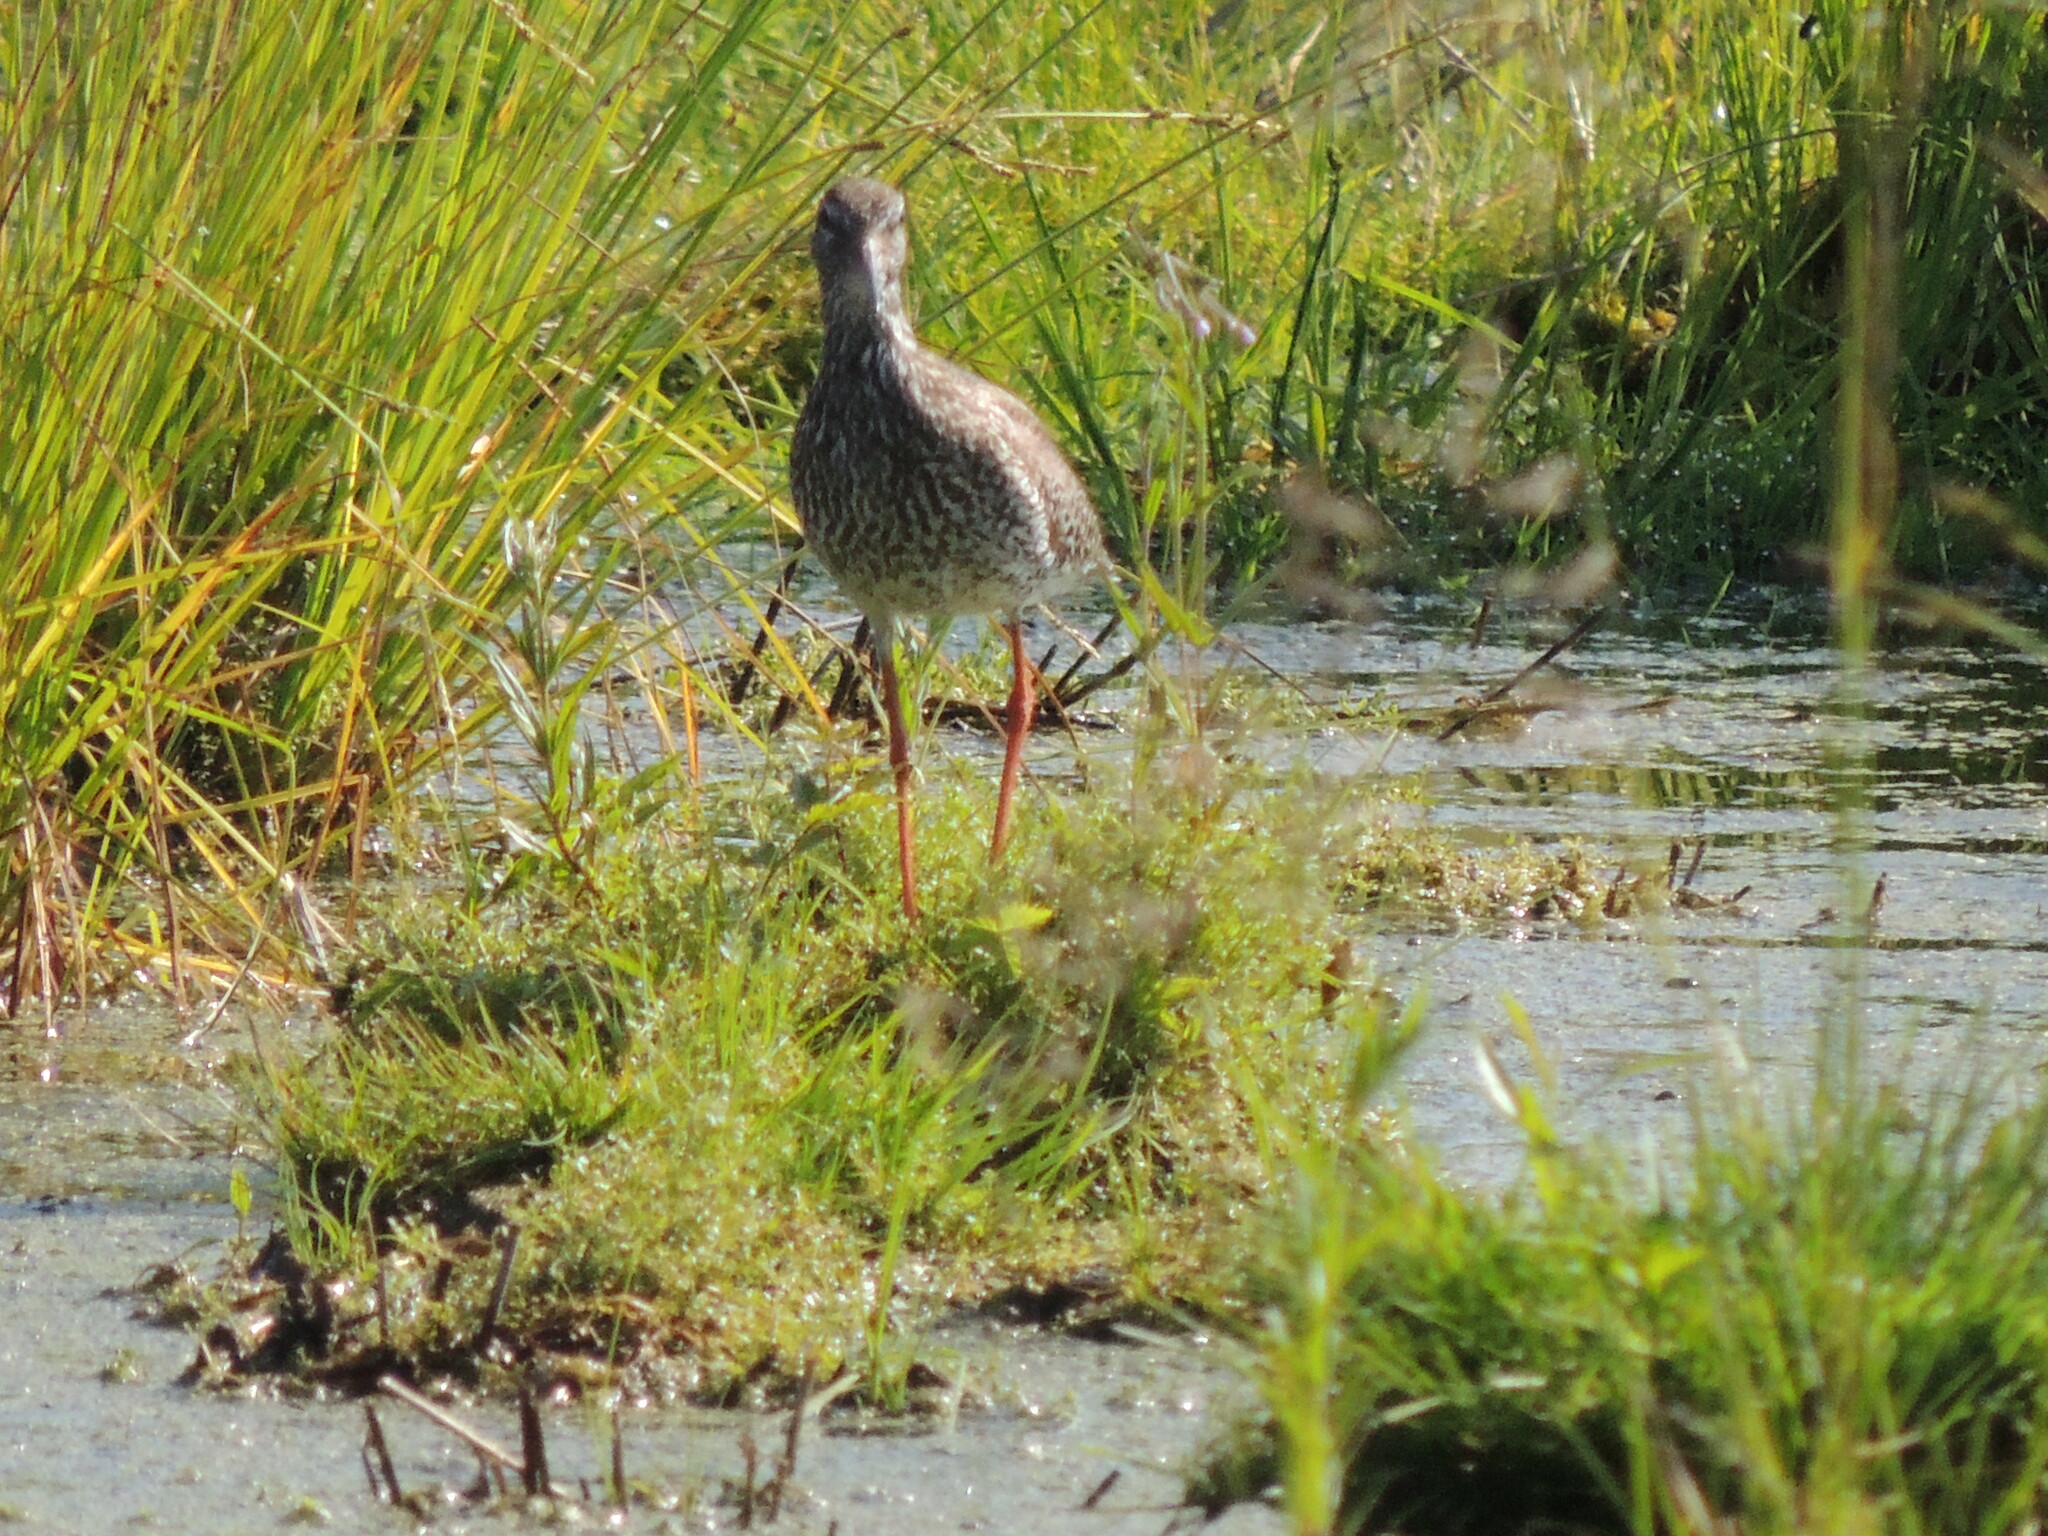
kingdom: Animalia
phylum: Chordata
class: Aves
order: Charadriiformes
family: Scolopacidae
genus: Tringa
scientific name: Tringa totanus
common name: Common redshank
